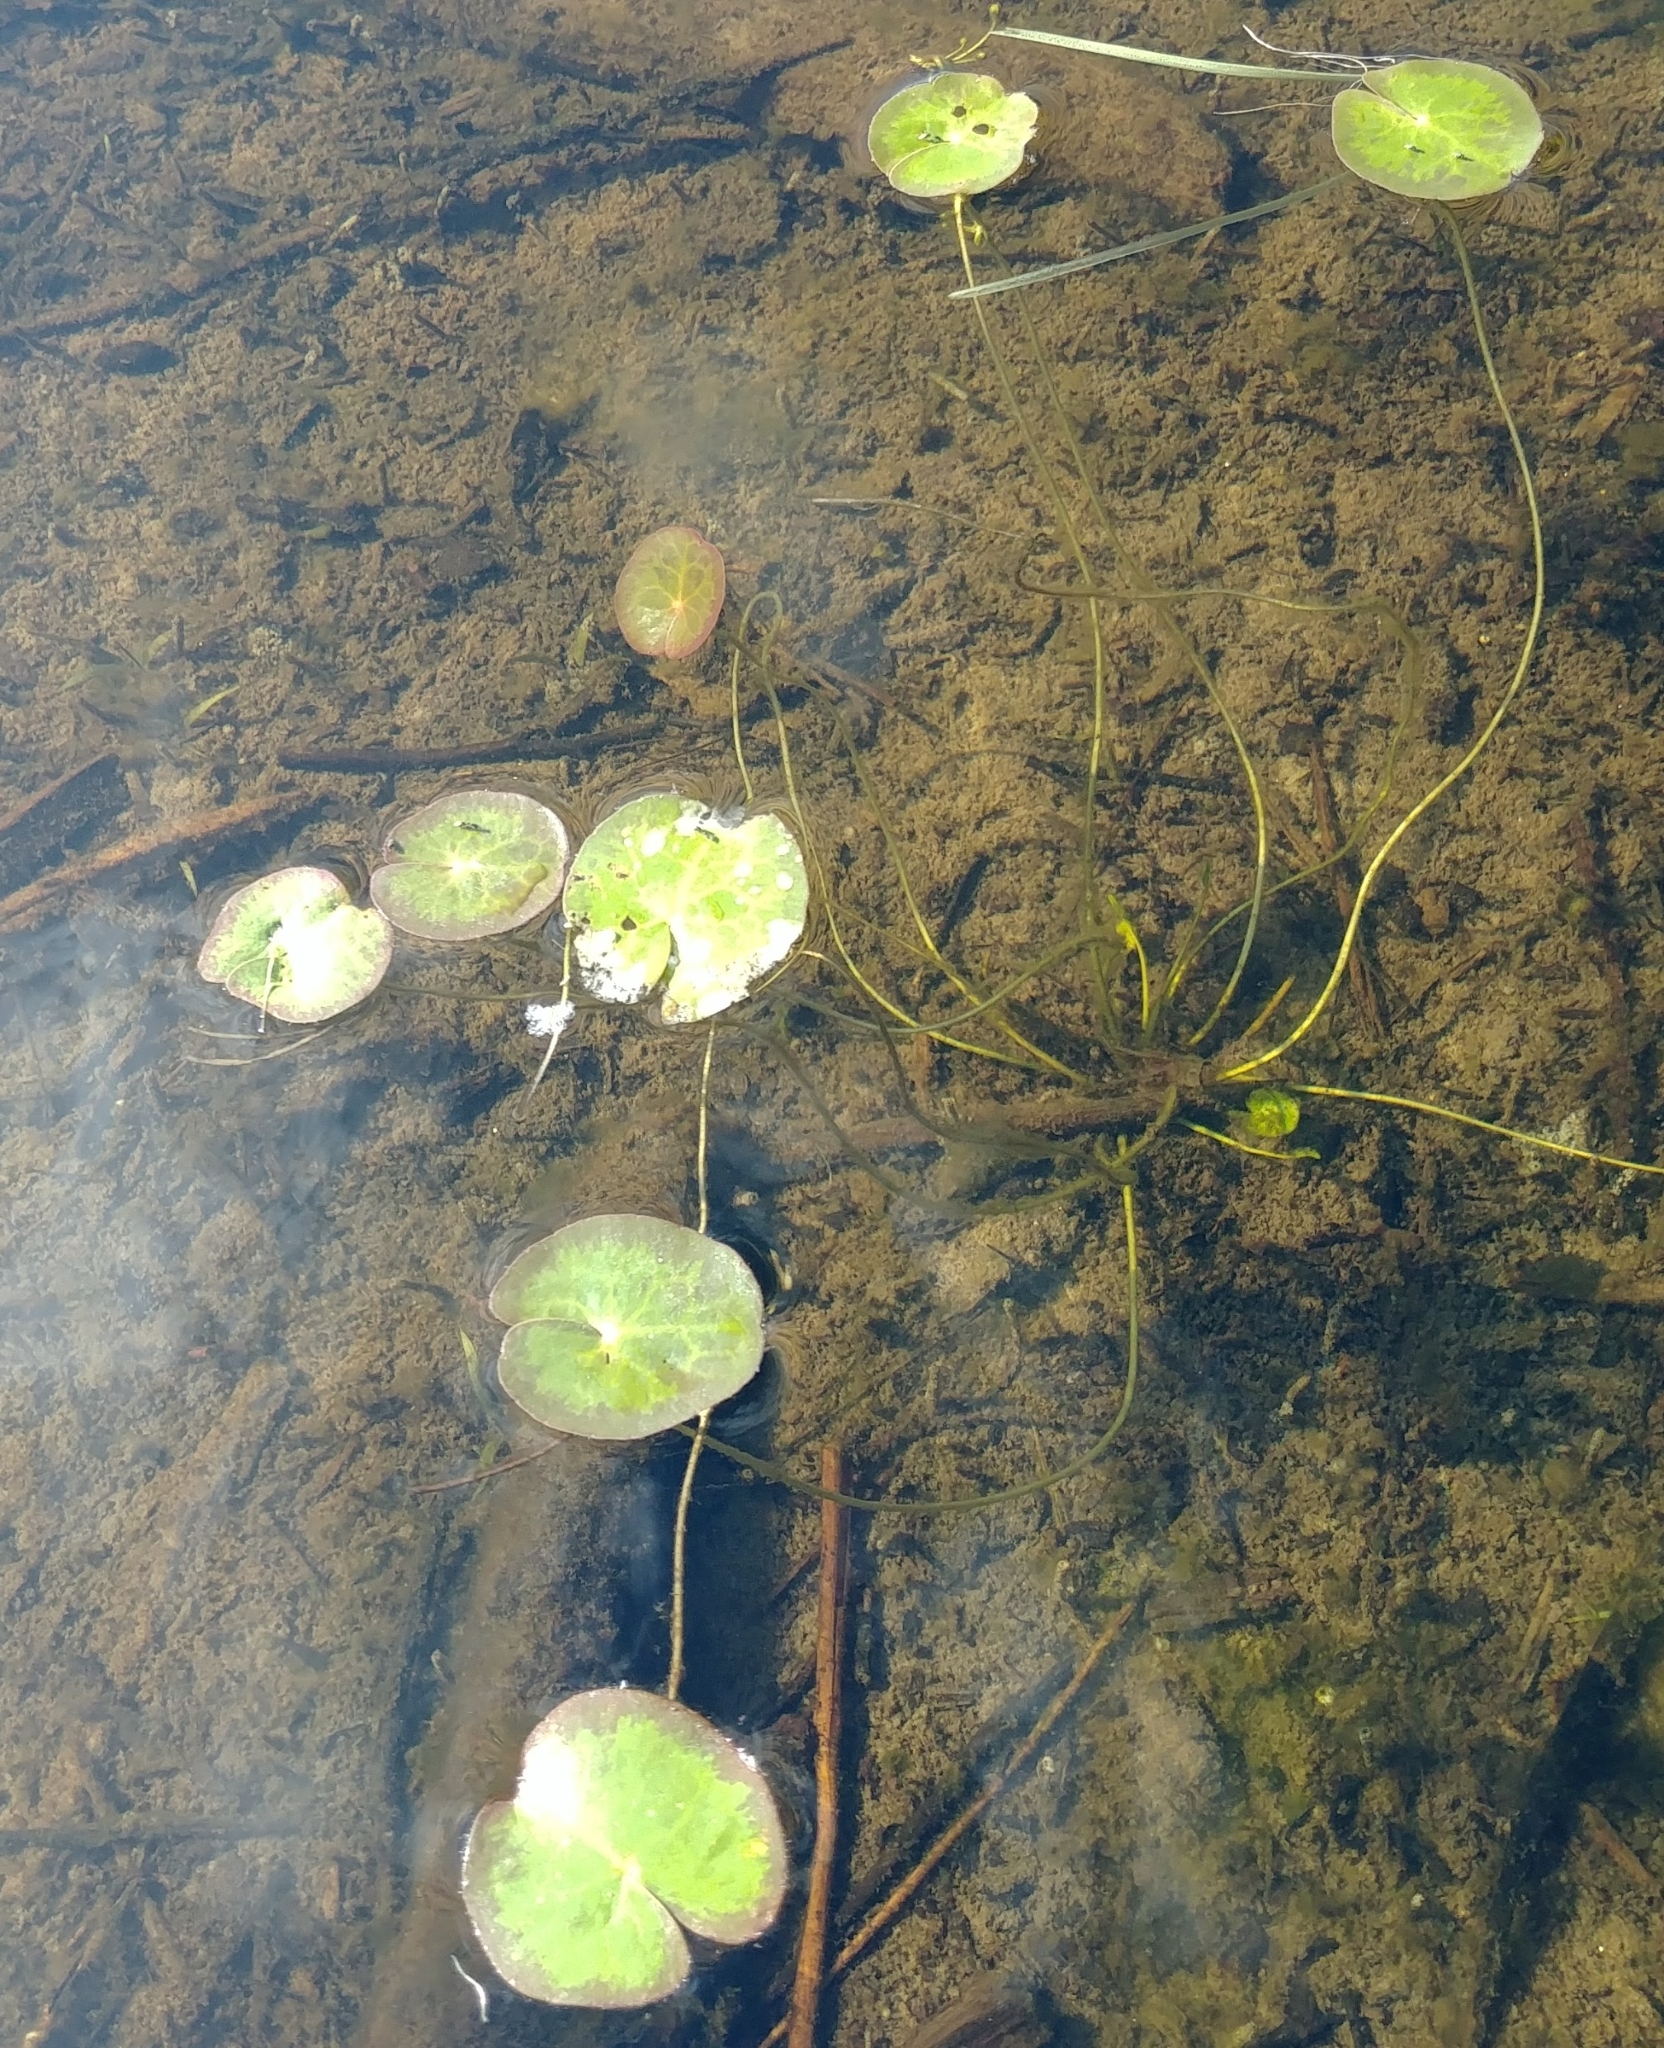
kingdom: Plantae
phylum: Tracheophyta
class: Magnoliopsida
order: Asterales
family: Menyanthaceae
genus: Nymphoides
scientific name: Nymphoides cordata
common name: Eight-angled floatingheart
